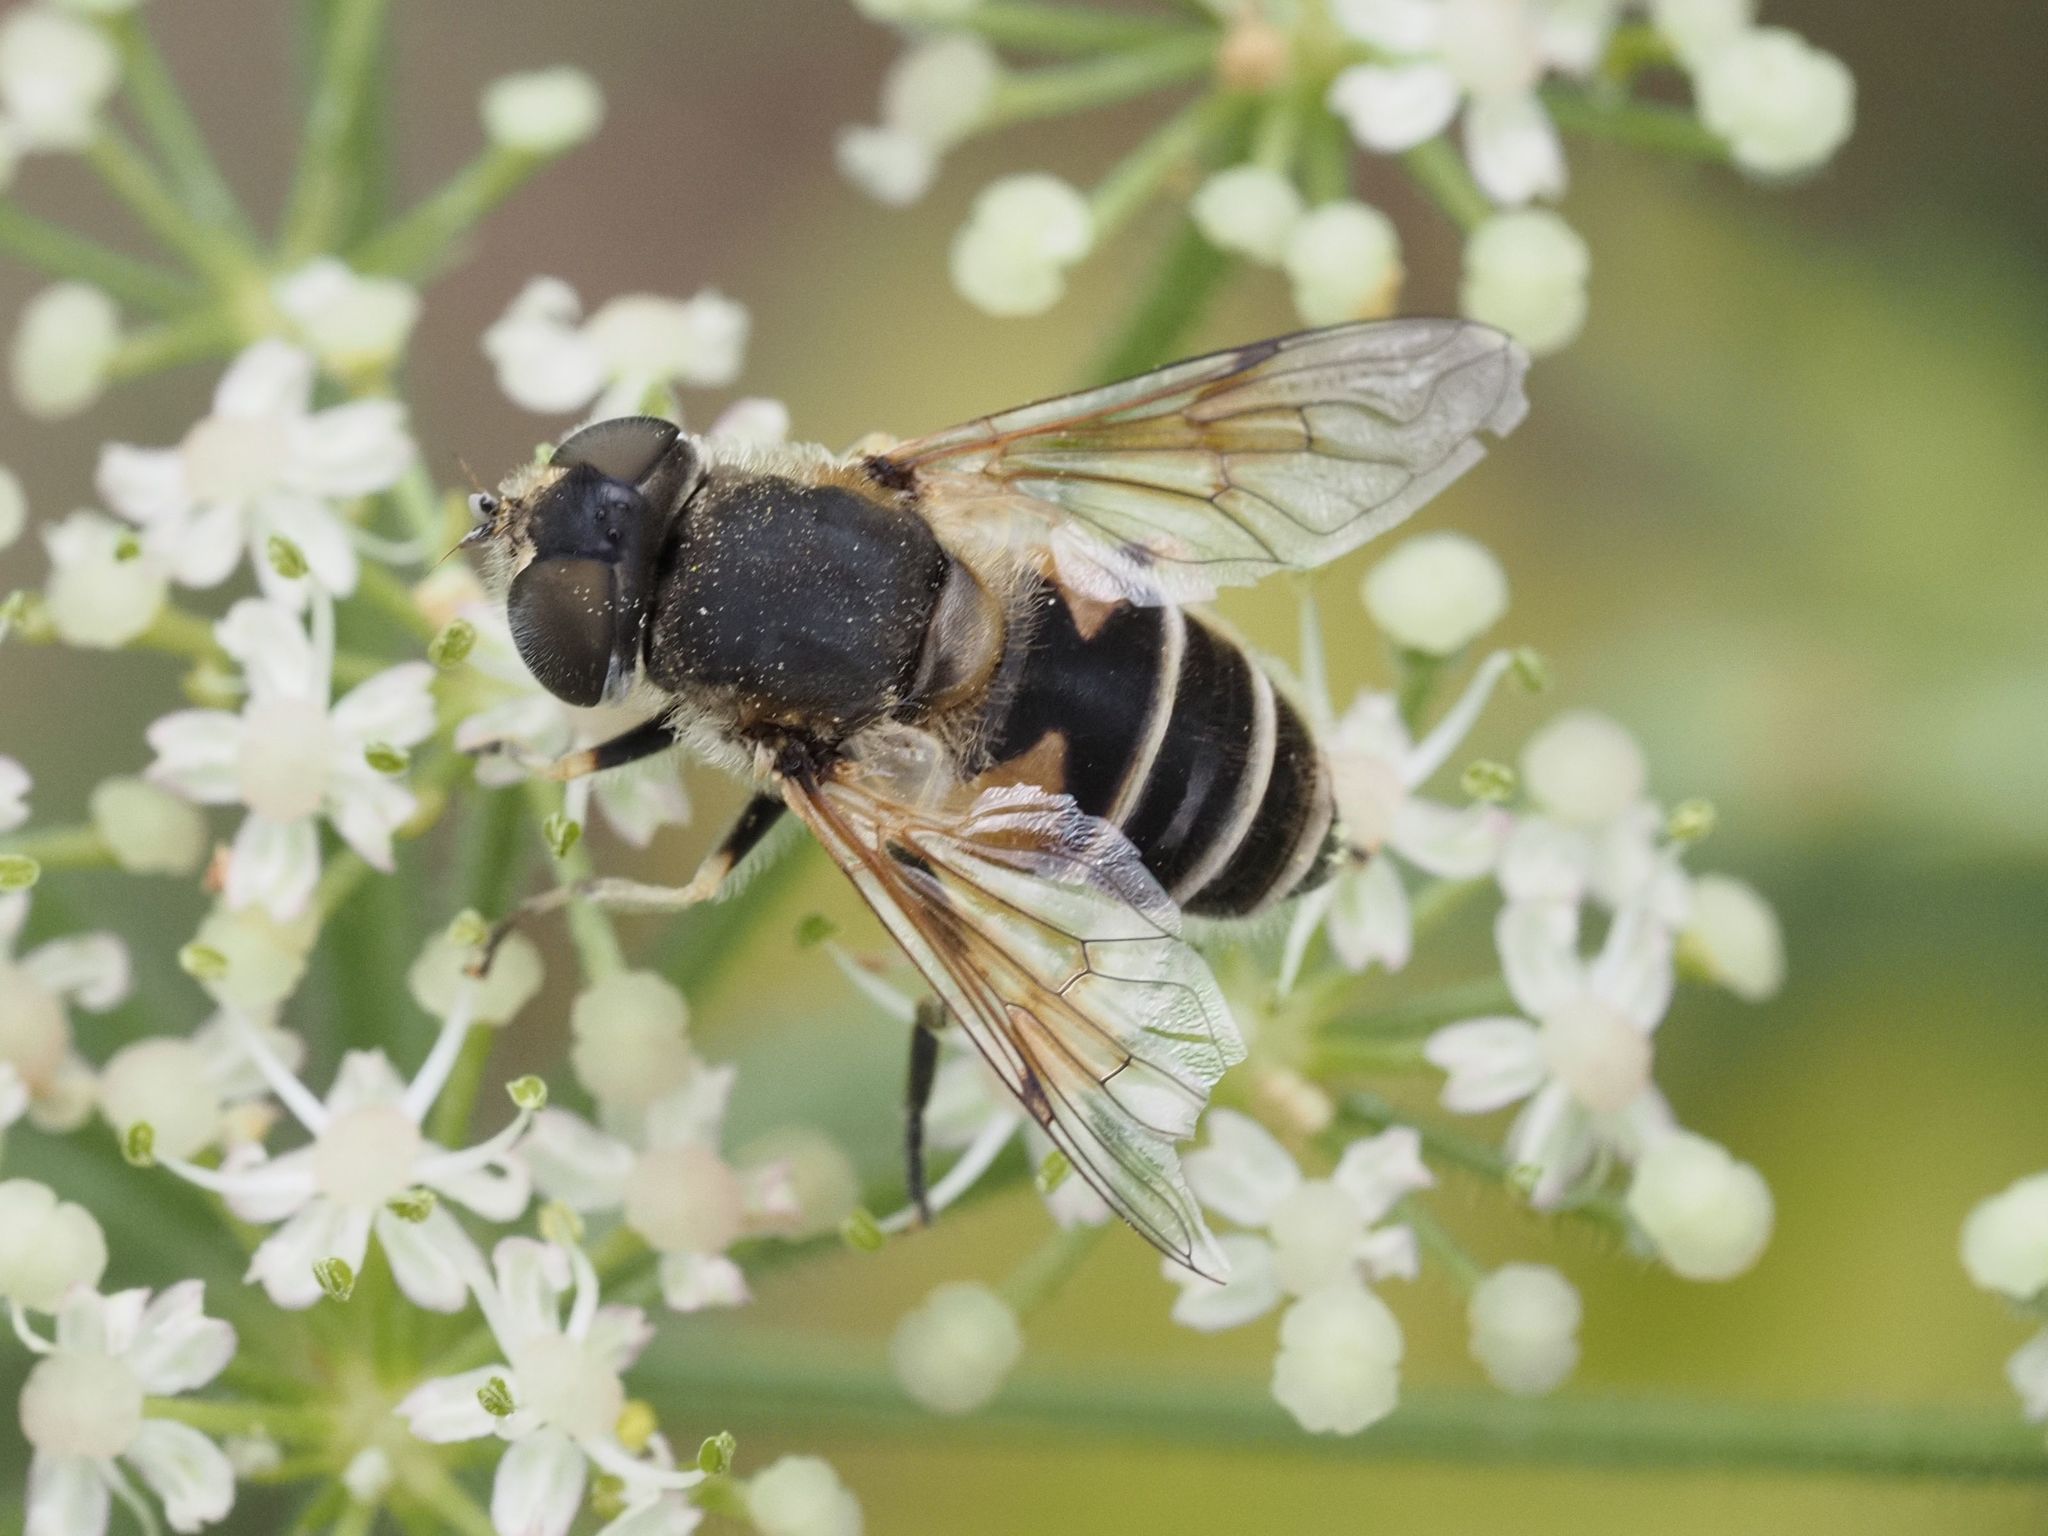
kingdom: Animalia
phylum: Arthropoda
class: Insecta
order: Diptera
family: Syrphidae
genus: Eristalis
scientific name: Eristalis arbustorum
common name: Hover fly
